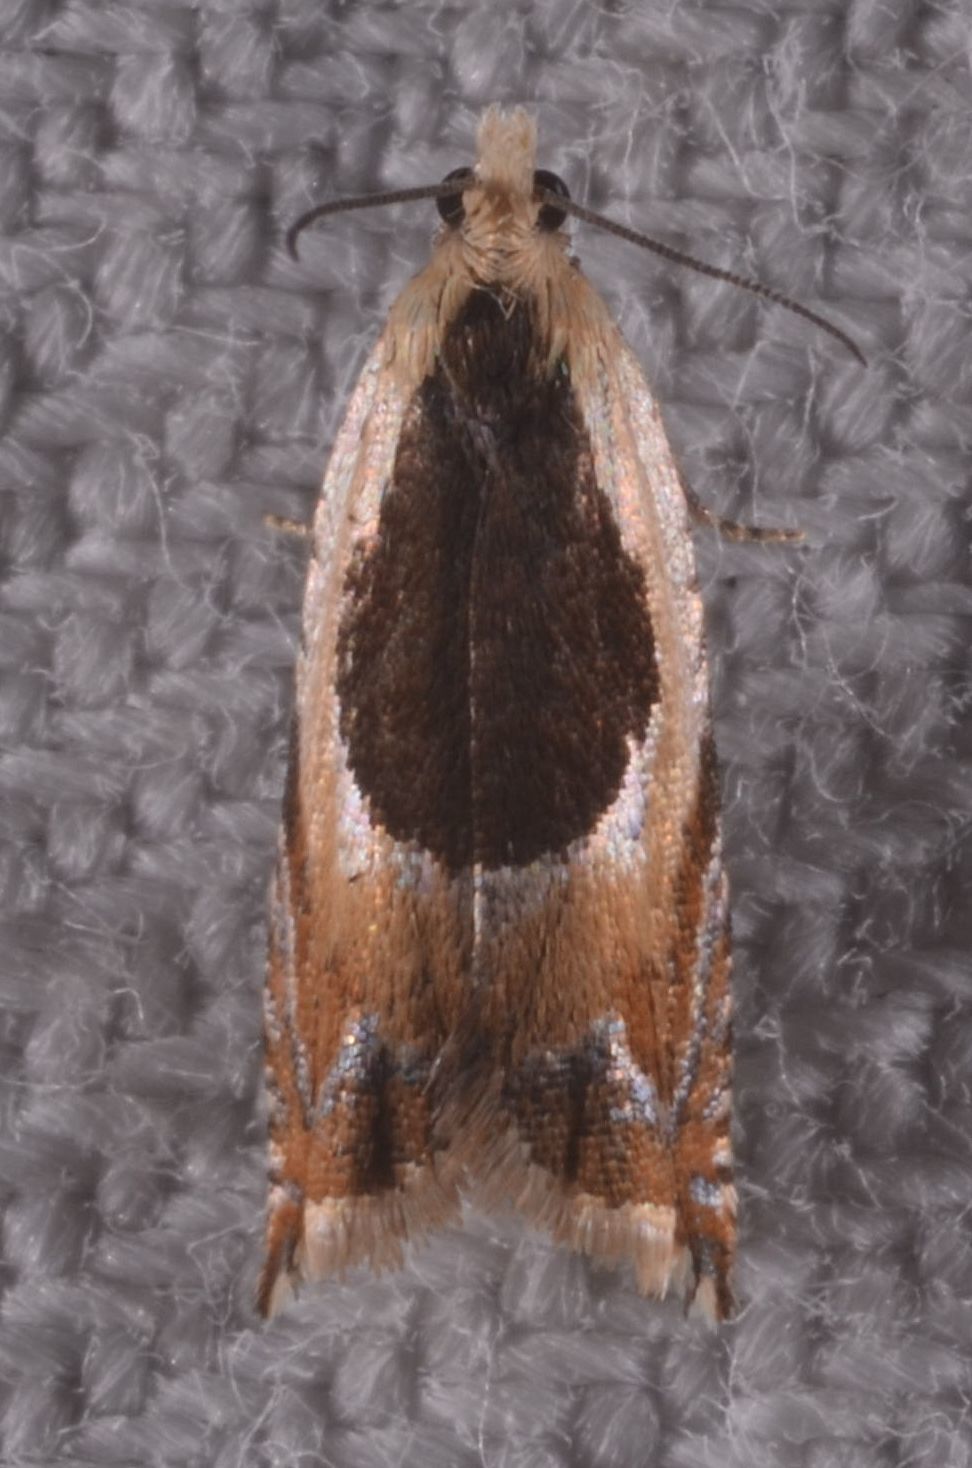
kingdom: Animalia
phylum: Arthropoda
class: Insecta
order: Lepidoptera
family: Tortricidae
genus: Ancylis
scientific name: Ancylis badiana
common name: Common roller
